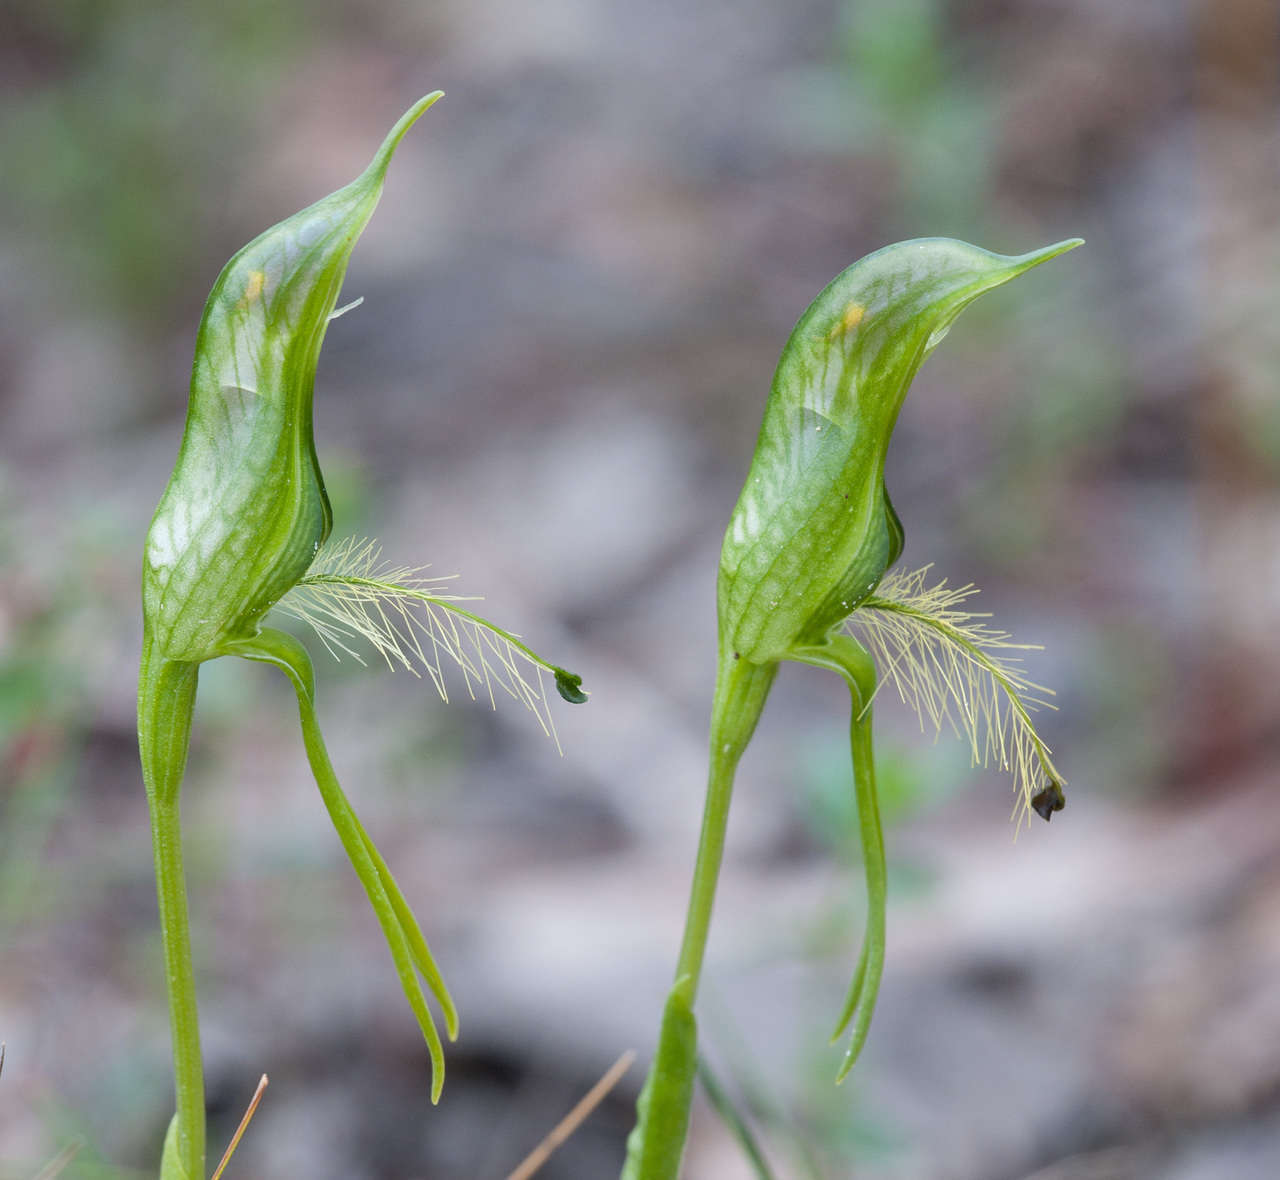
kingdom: Plantae
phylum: Tracheophyta
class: Liliopsida
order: Asparagales
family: Orchidaceae
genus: Pterostylis
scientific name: Pterostylis unicornis
